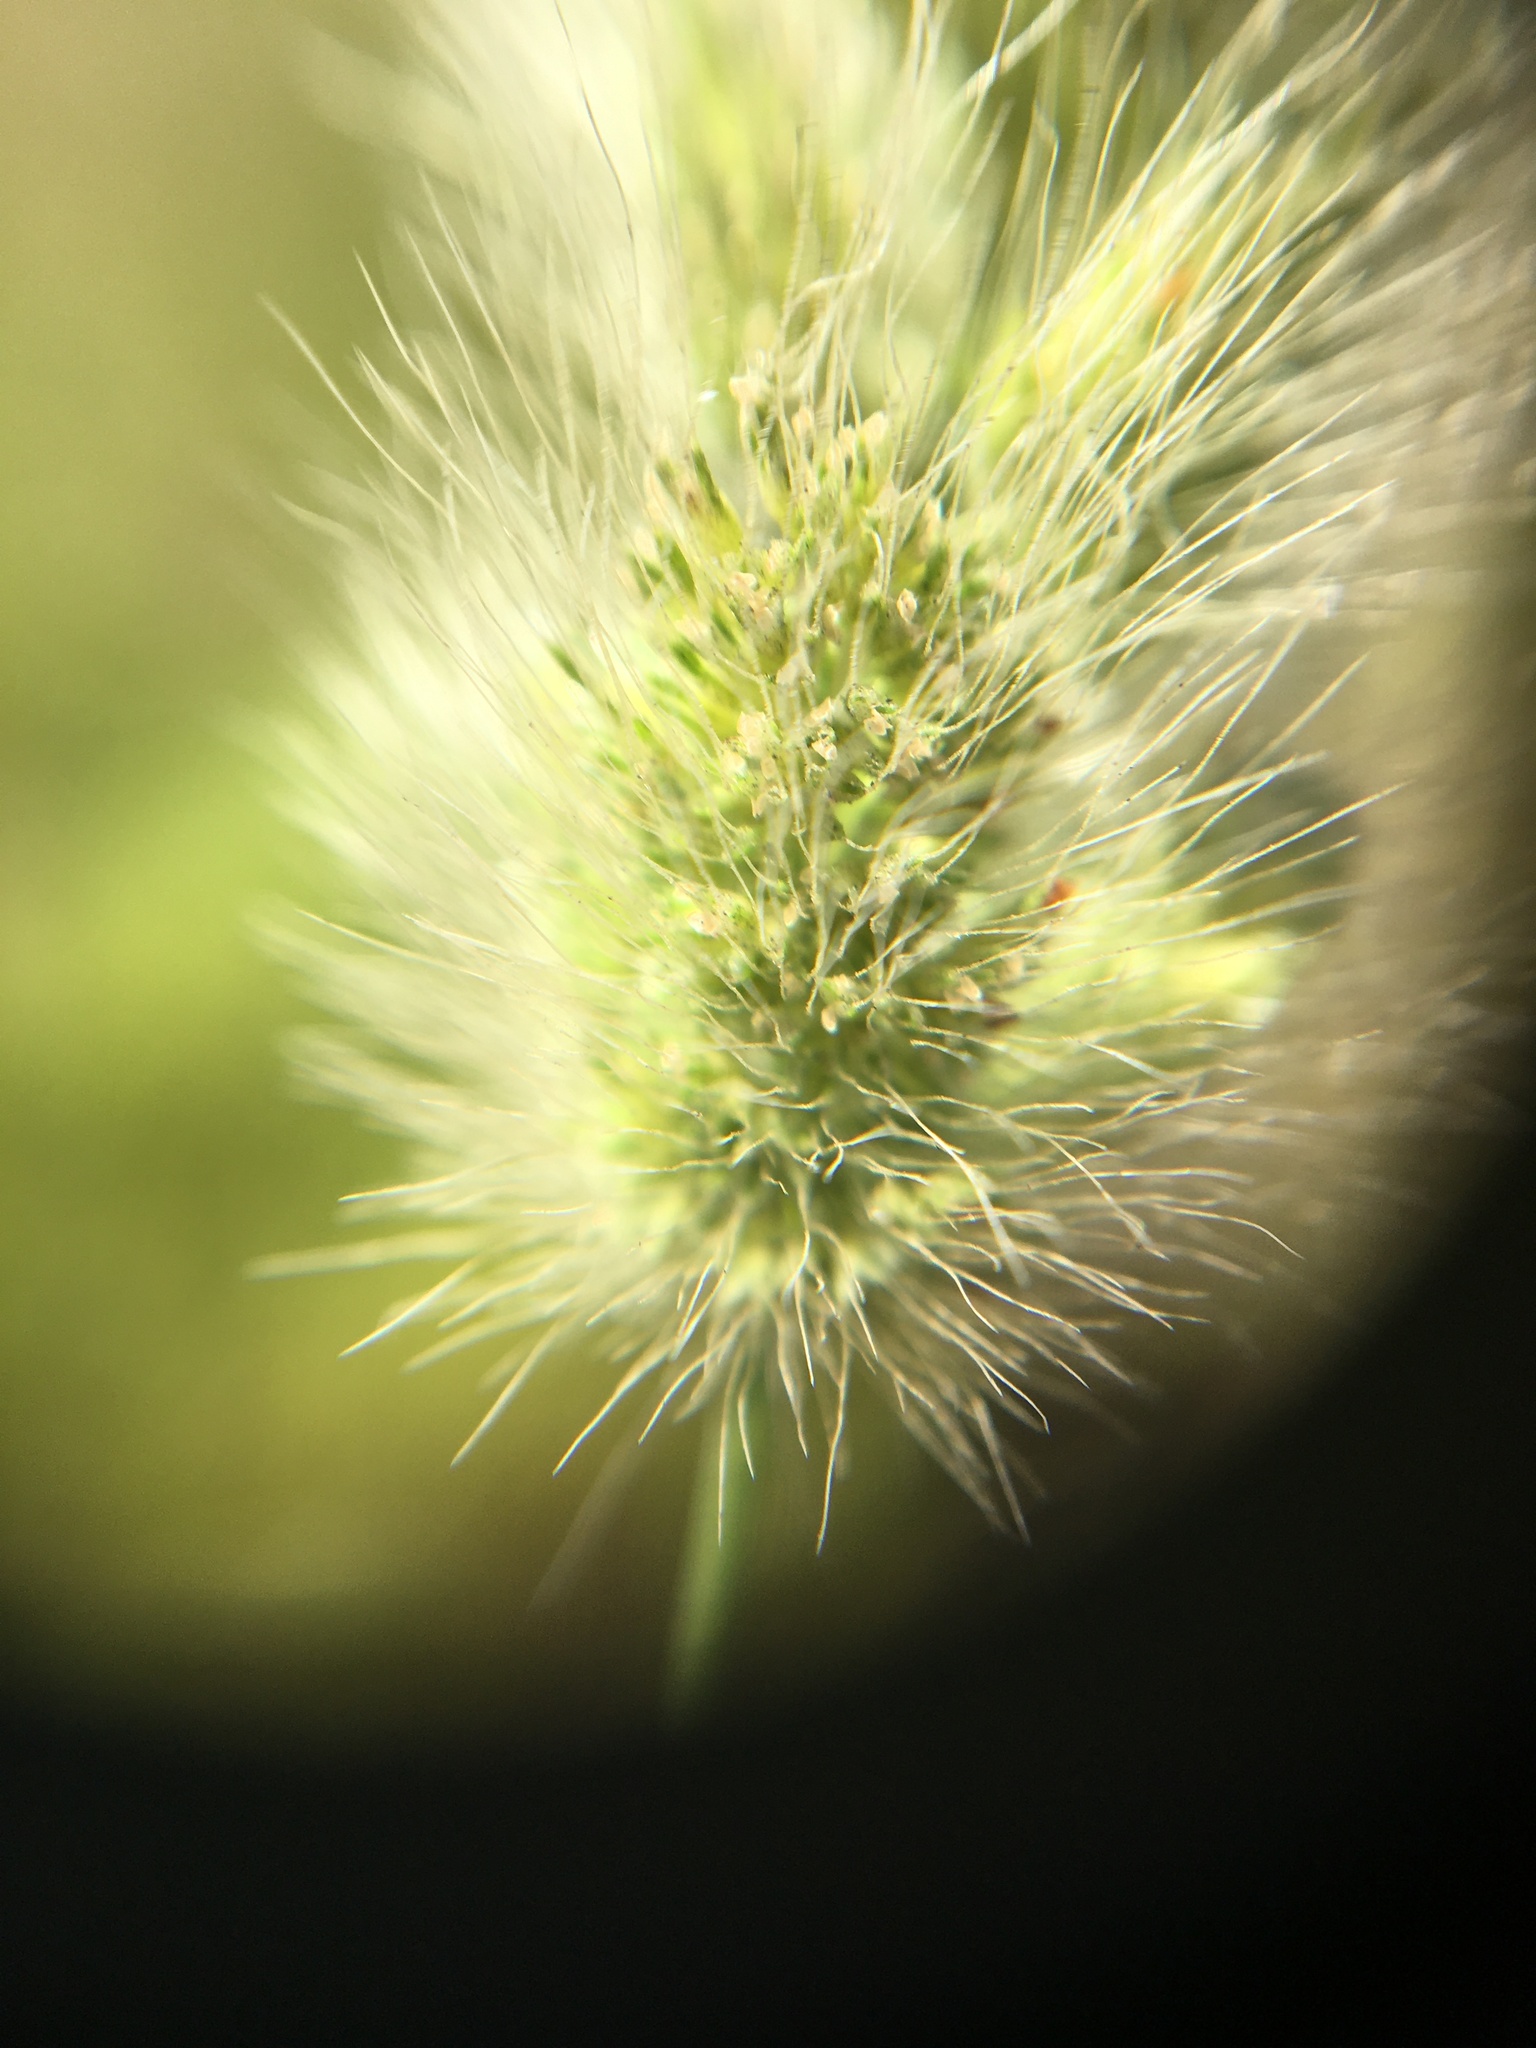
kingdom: Plantae
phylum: Tracheophyta
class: Liliopsida
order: Poales
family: Poaceae
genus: Polypogon
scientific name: Polypogon monspeliensis
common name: Annual rabbitsfoot grass
